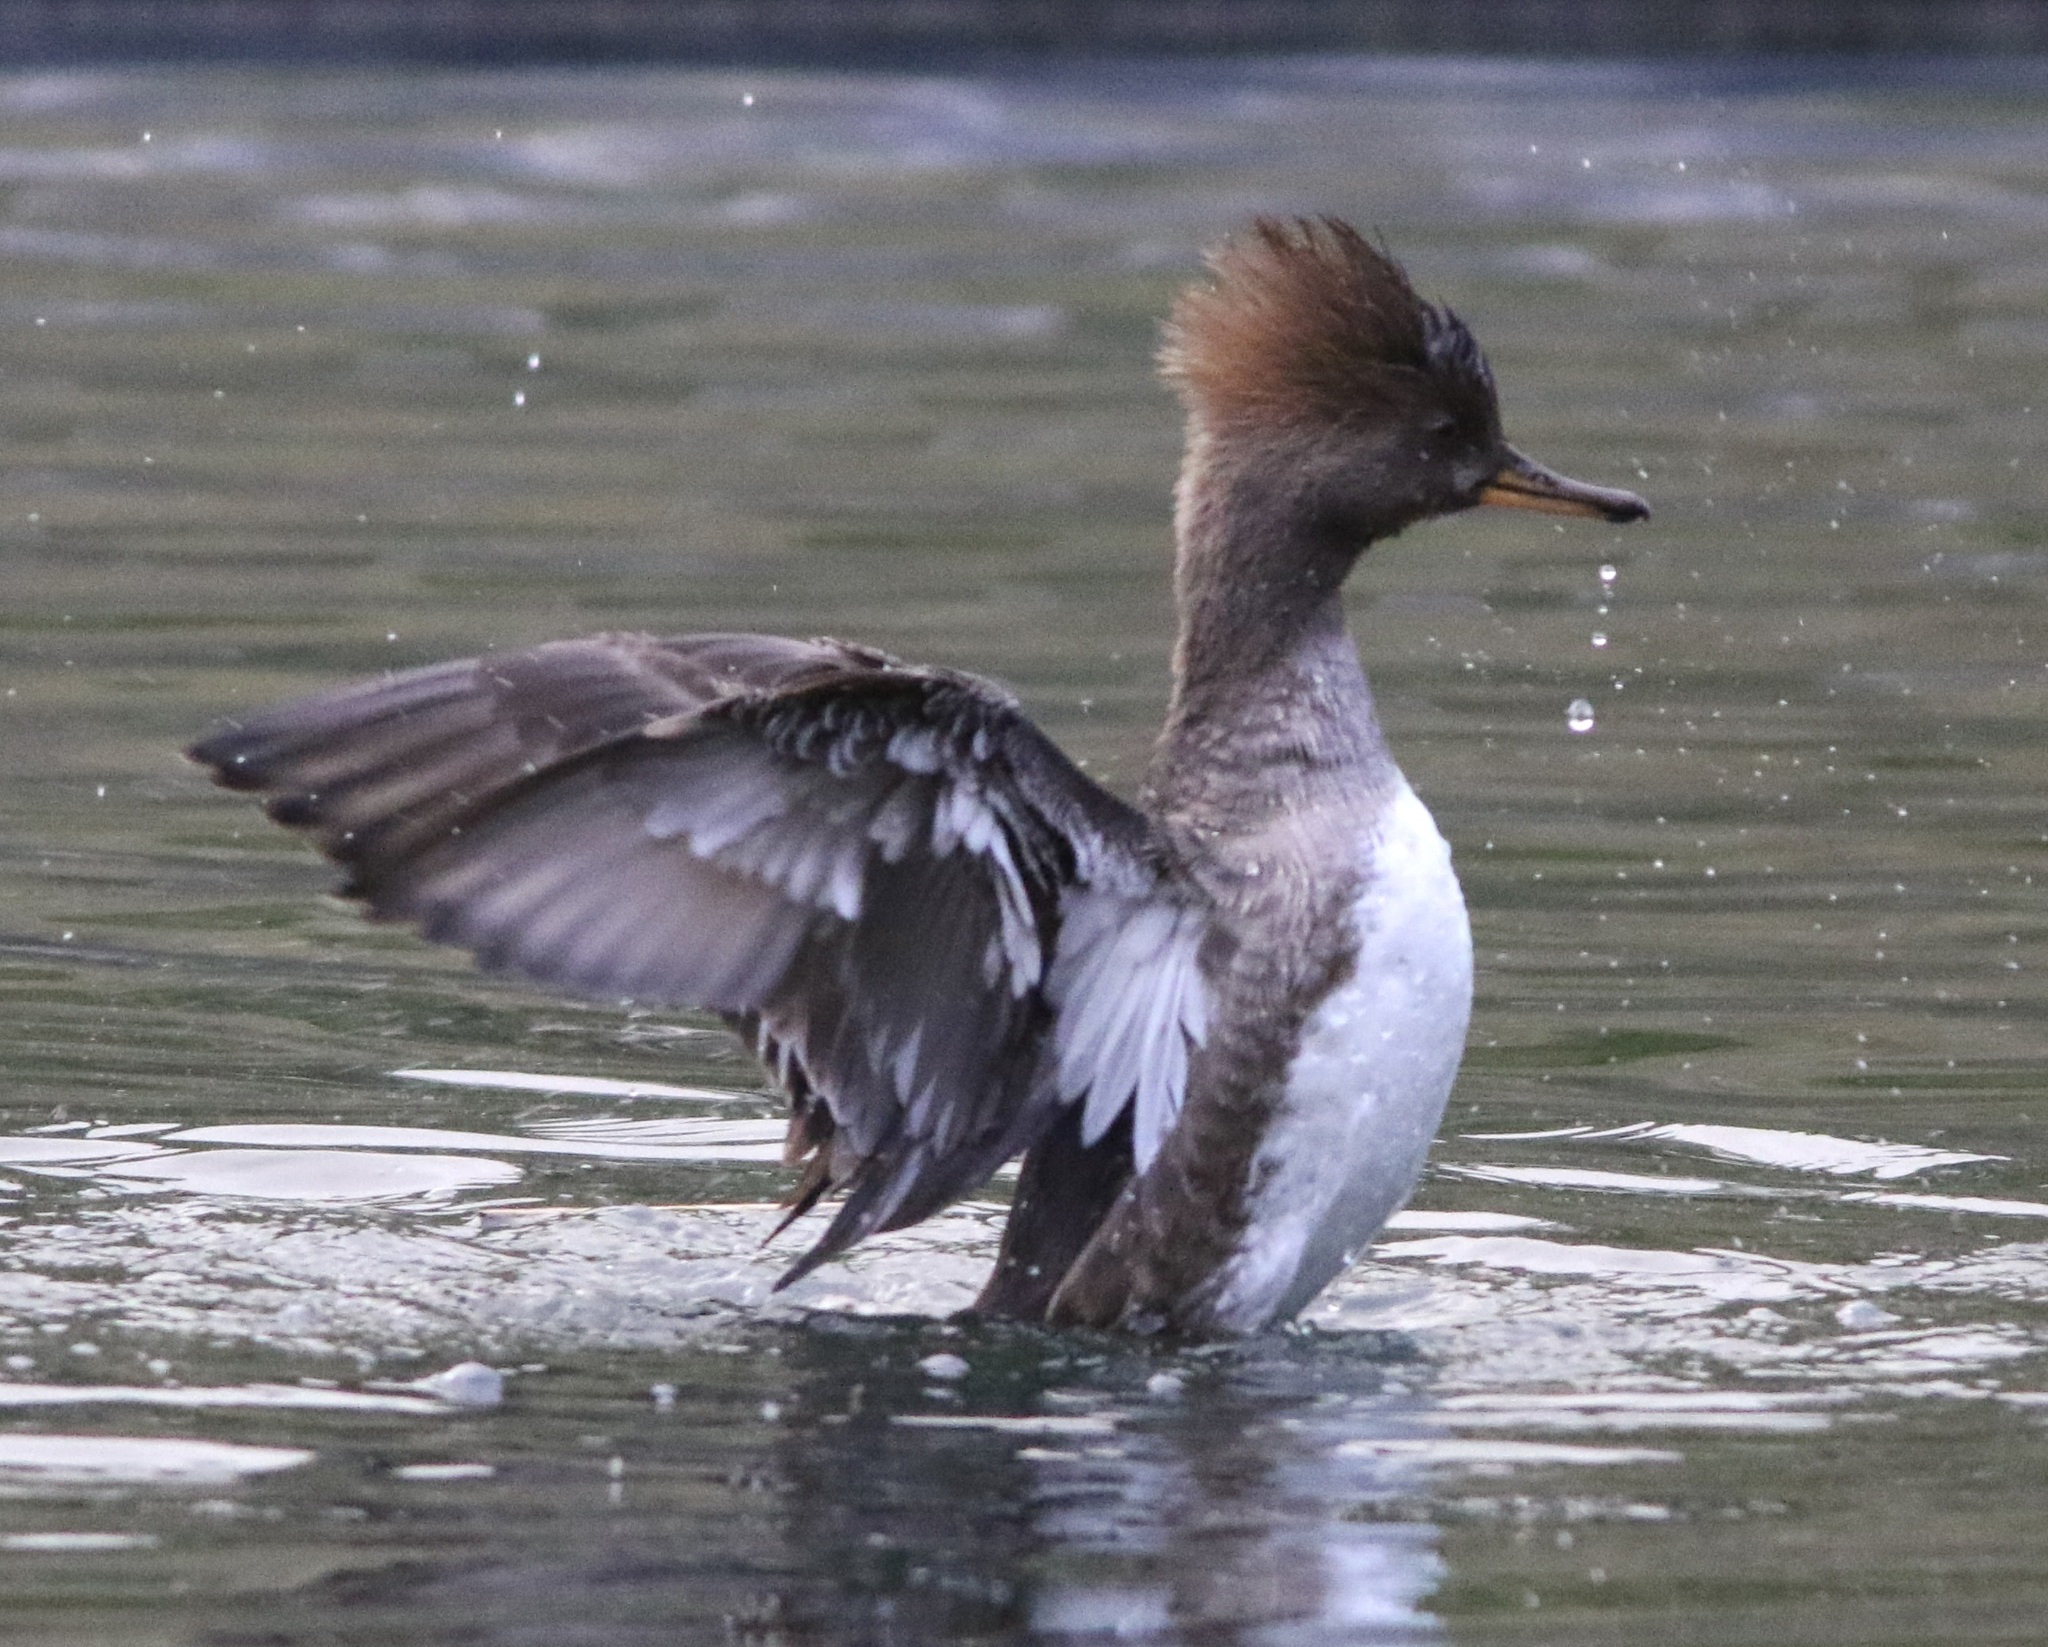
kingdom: Animalia
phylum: Chordata
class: Aves
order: Anseriformes
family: Anatidae
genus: Lophodytes
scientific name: Lophodytes cucullatus
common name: Hooded merganser
